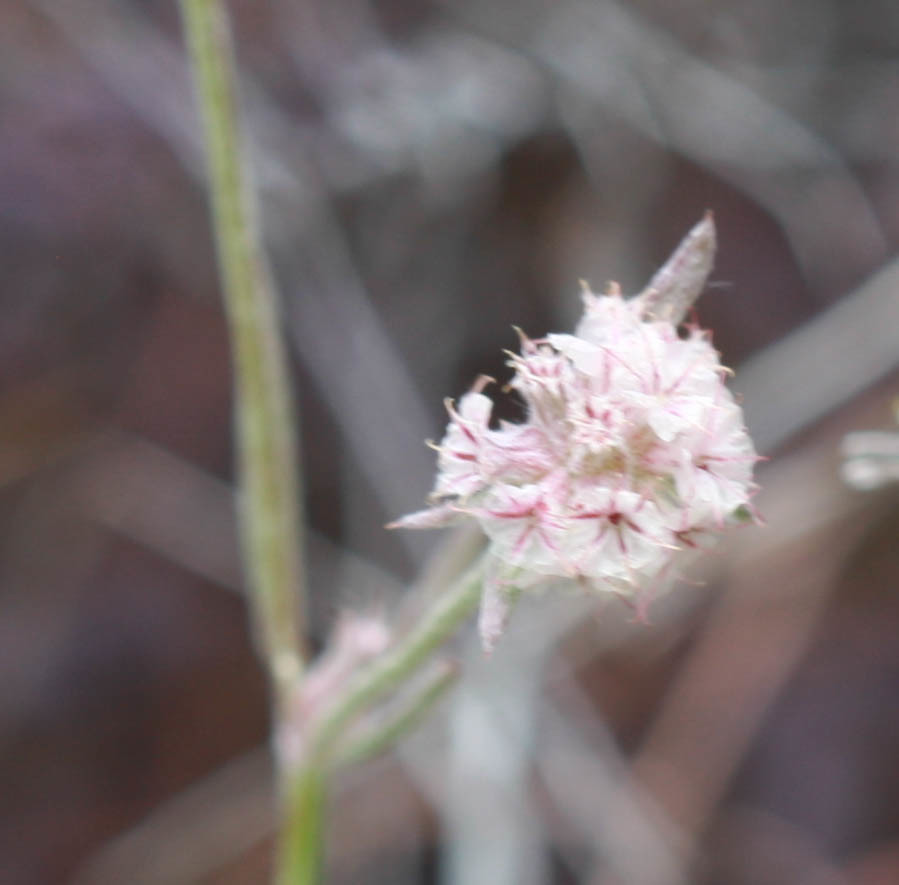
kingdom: Plantae
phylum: Tracheophyta
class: Magnoliopsida
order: Caryophyllales
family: Polygonaceae
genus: Chorizanthe
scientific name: Chorizanthe membranacea
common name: Pink spineflower
